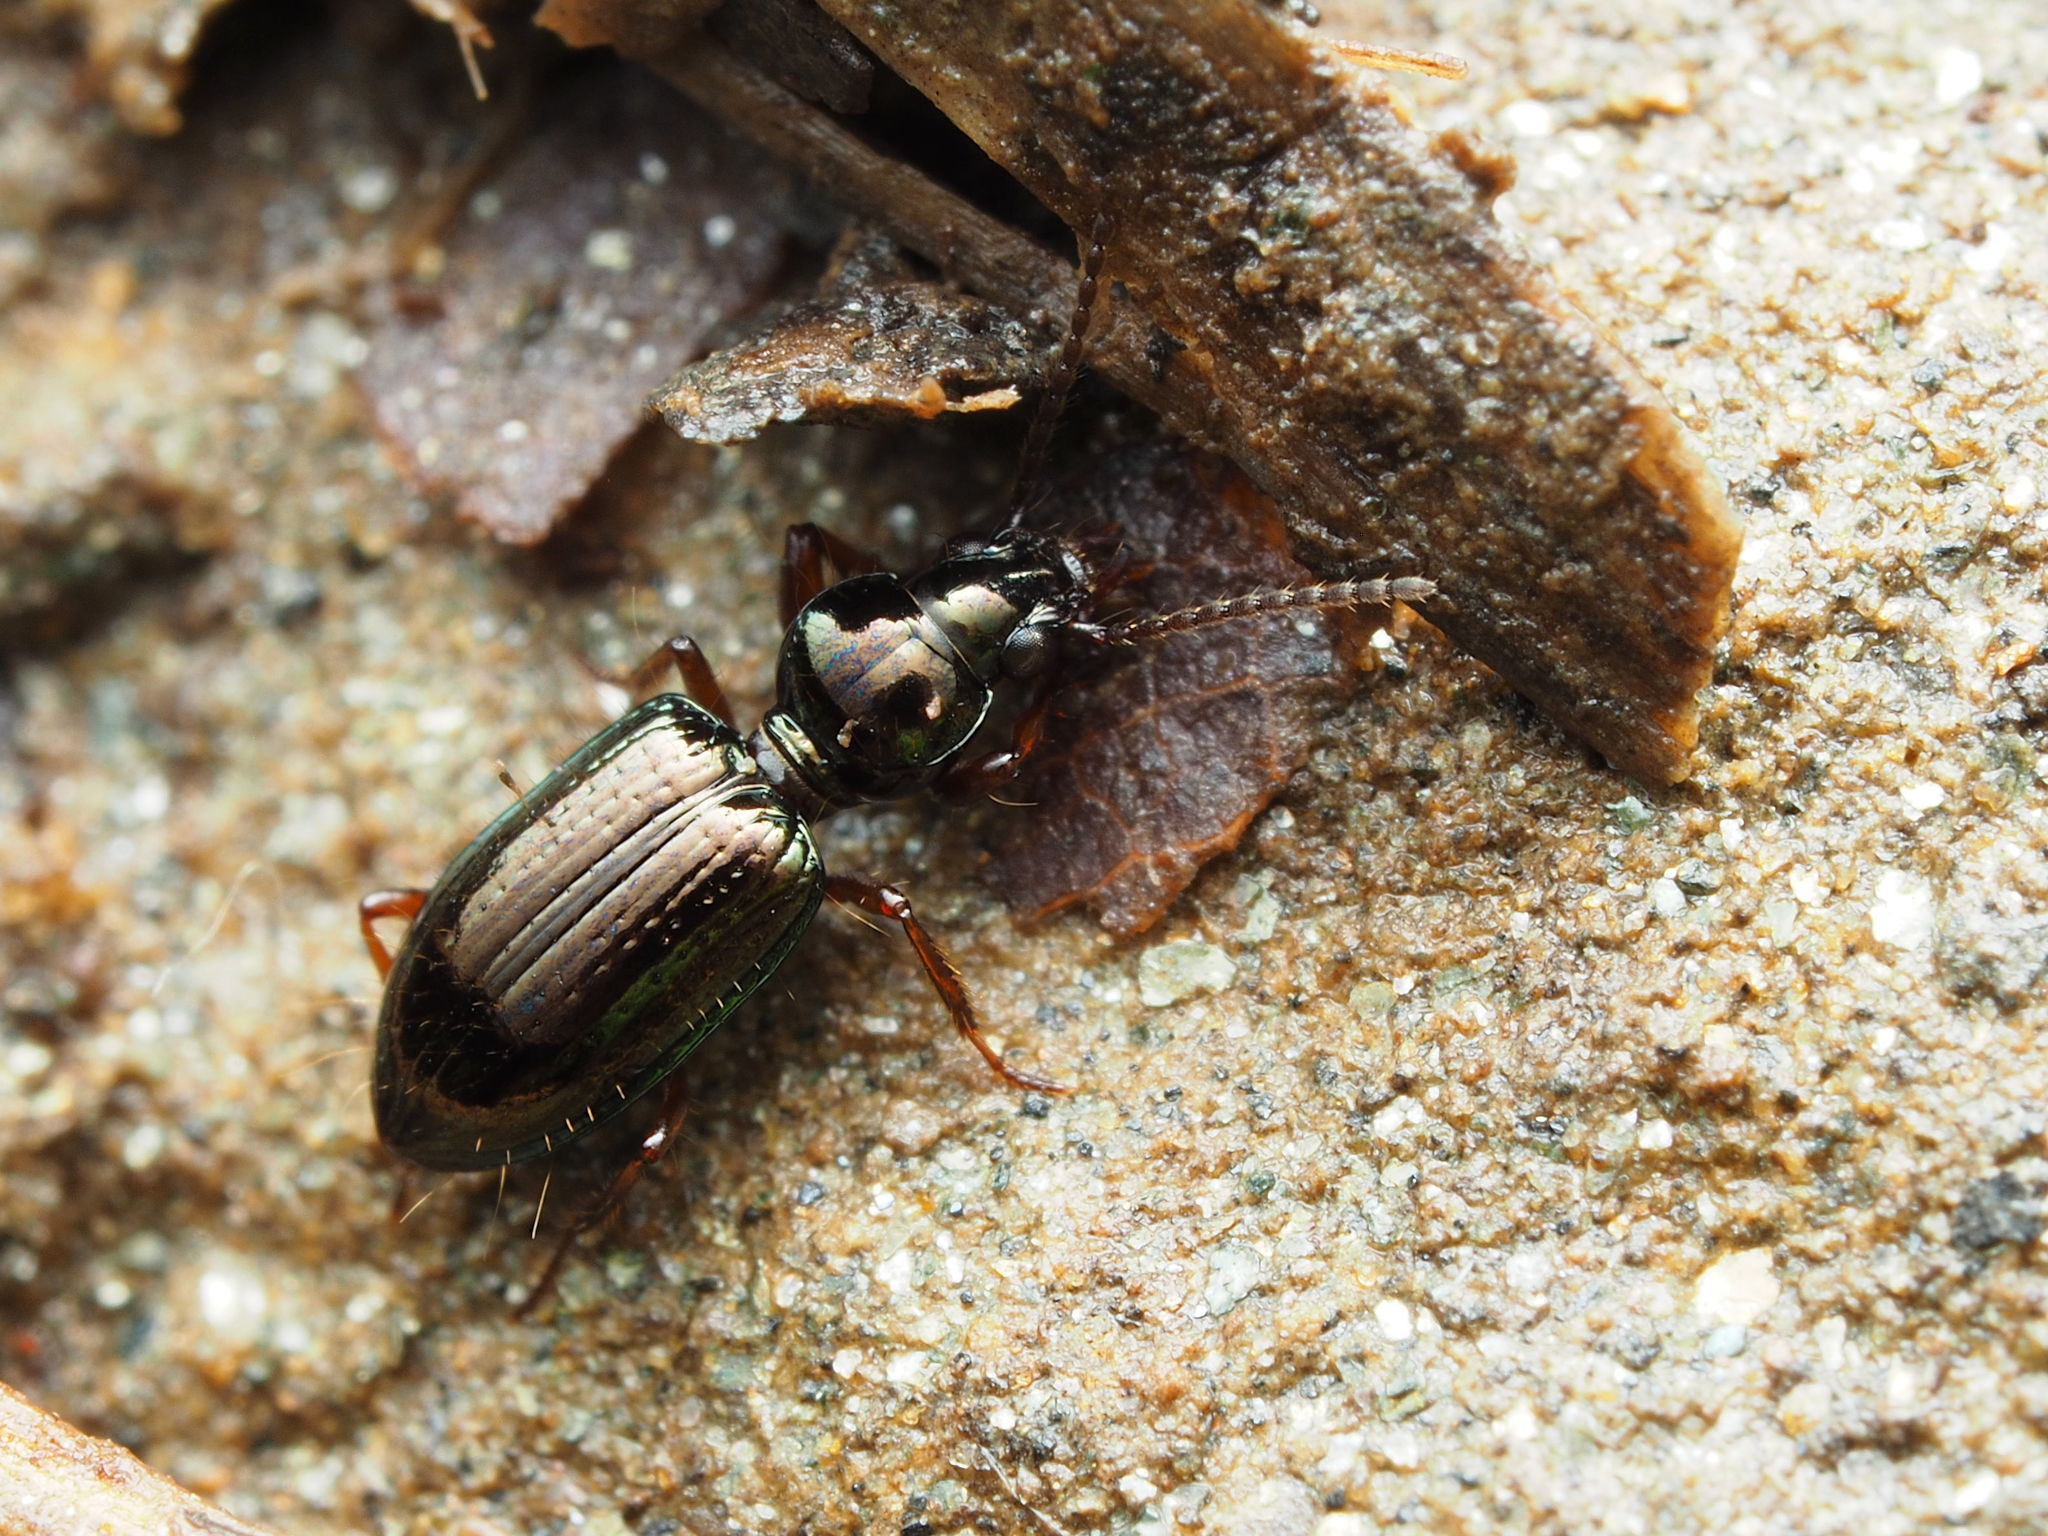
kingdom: Animalia
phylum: Arthropoda
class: Insecta
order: Coleoptera
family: Carabidae
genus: Semiardistomis
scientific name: Semiardistomis viridis
